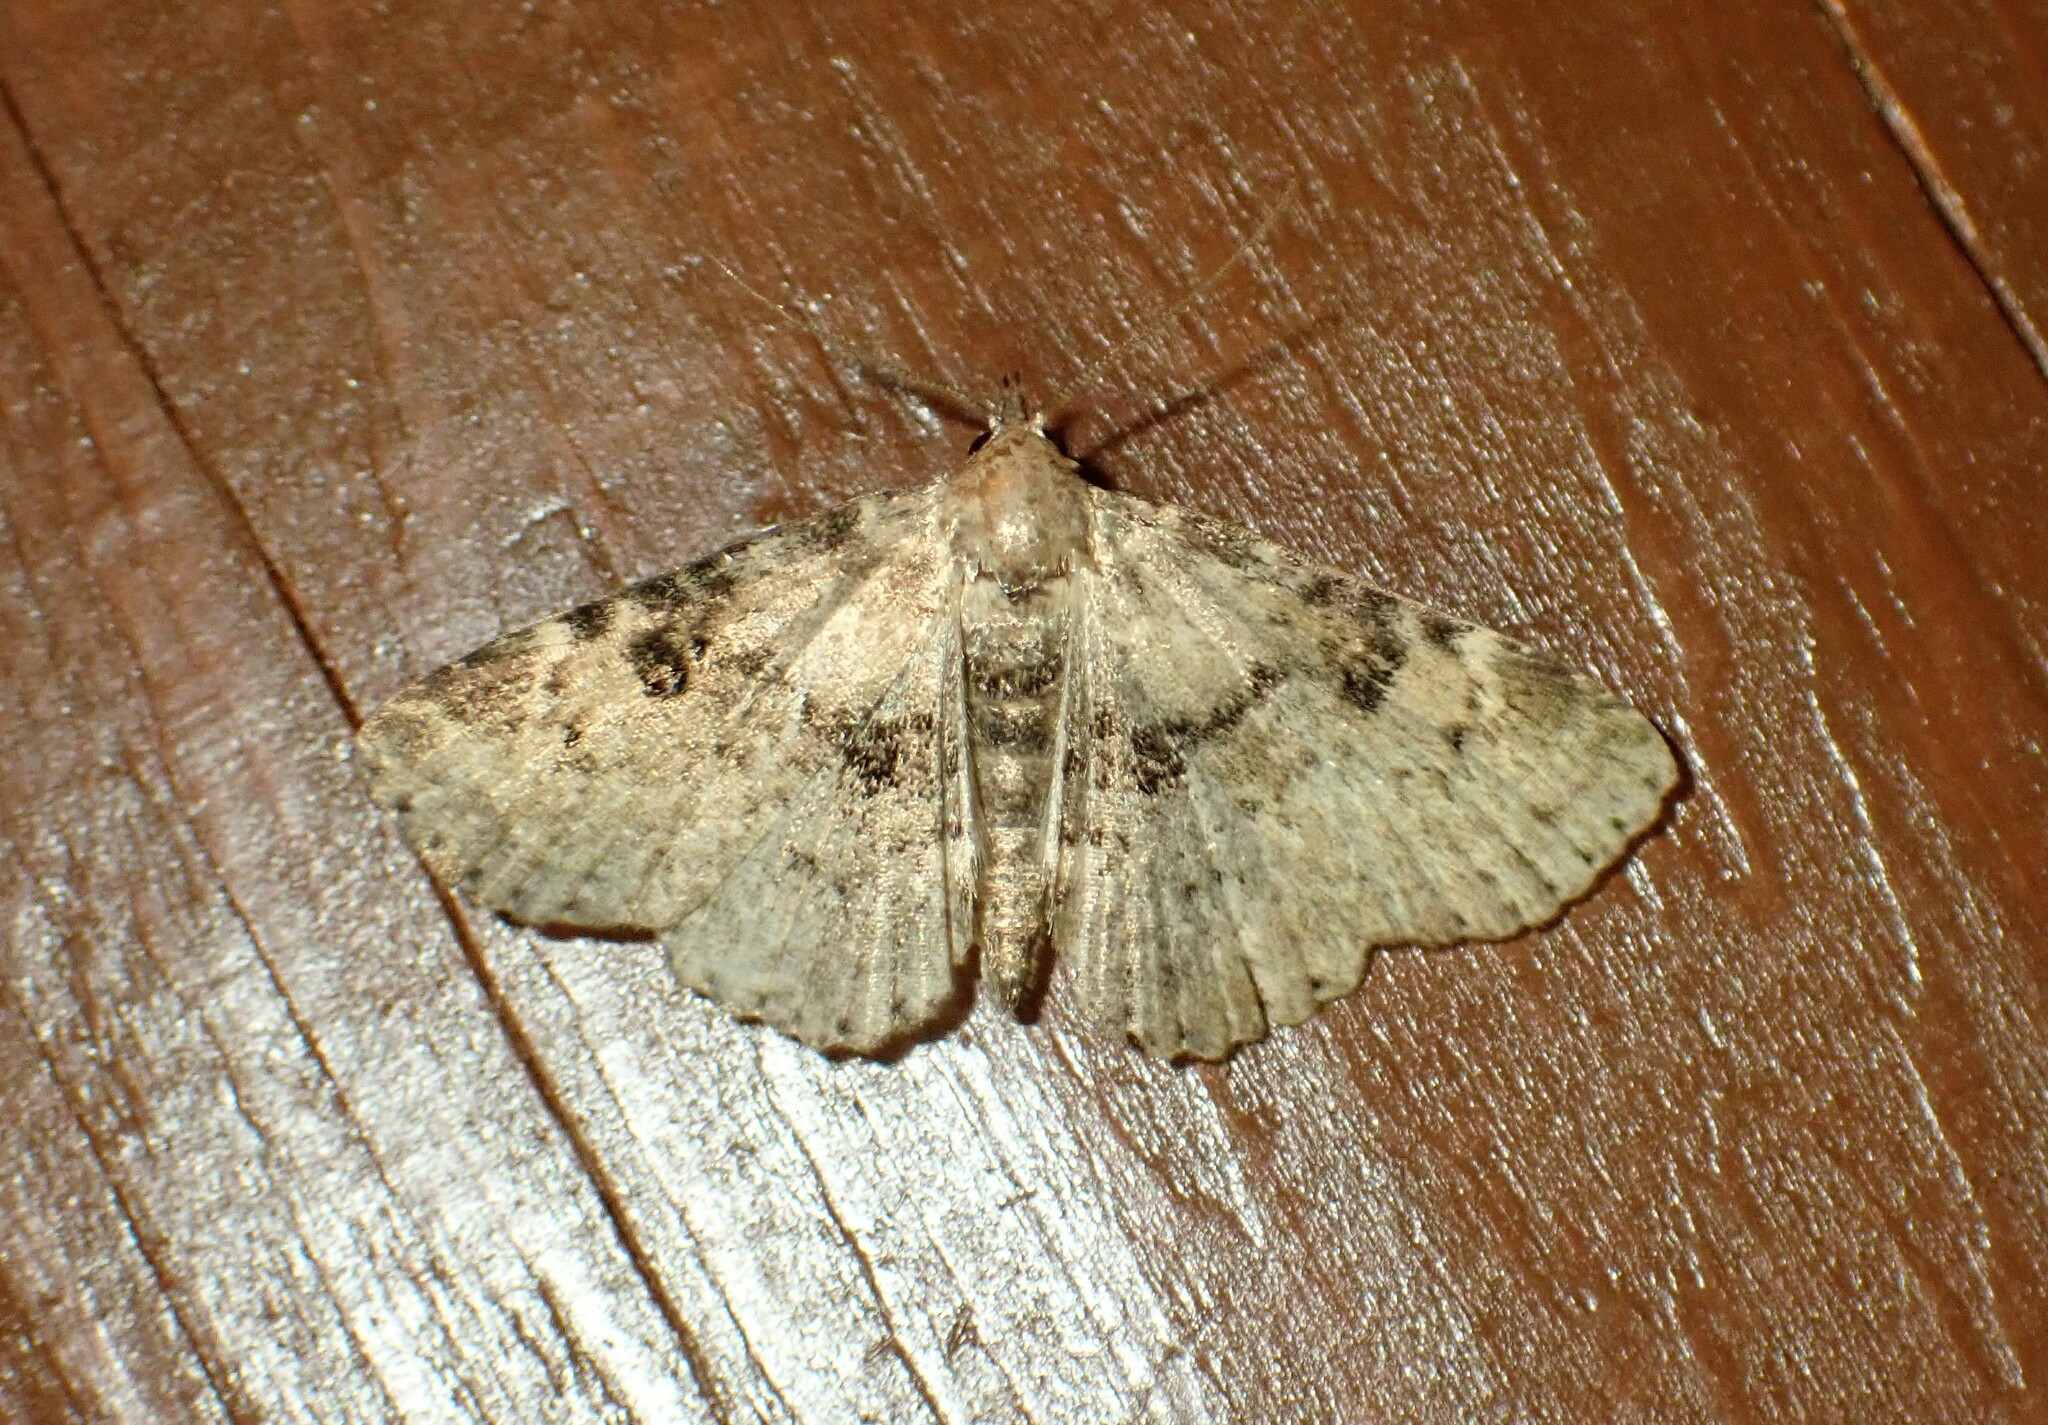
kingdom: Animalia
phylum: Arthropoda
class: Insecta
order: Lepidoptera
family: Erebidae
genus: Metalectra
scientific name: Metalectra quadrisignata
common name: Four-spotted fungus moth
